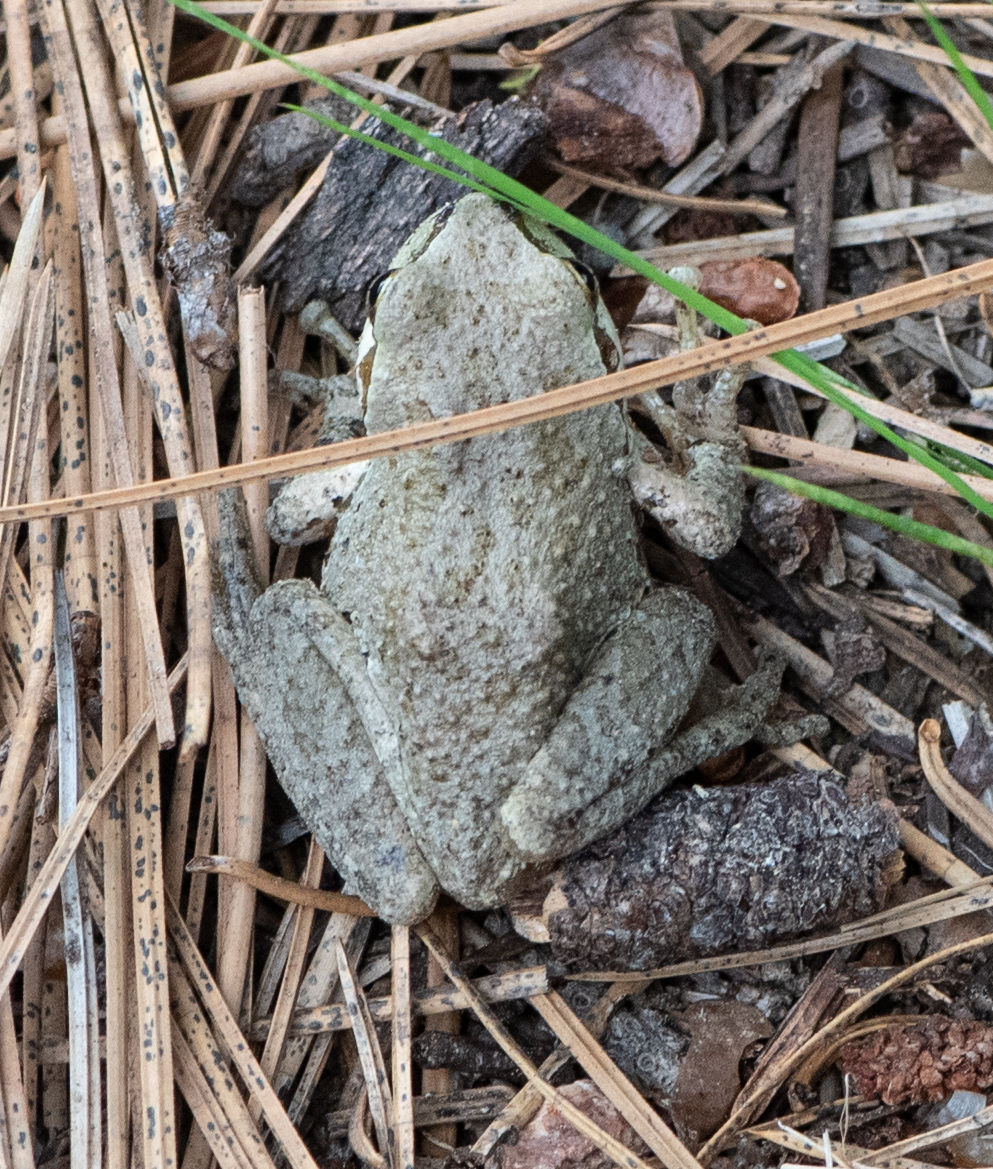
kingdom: Animalia
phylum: Chordata
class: Amphibia
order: Anura
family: Hylidae
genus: Pseudacris
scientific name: Pseudacris regilla
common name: Pacific chorus frog
